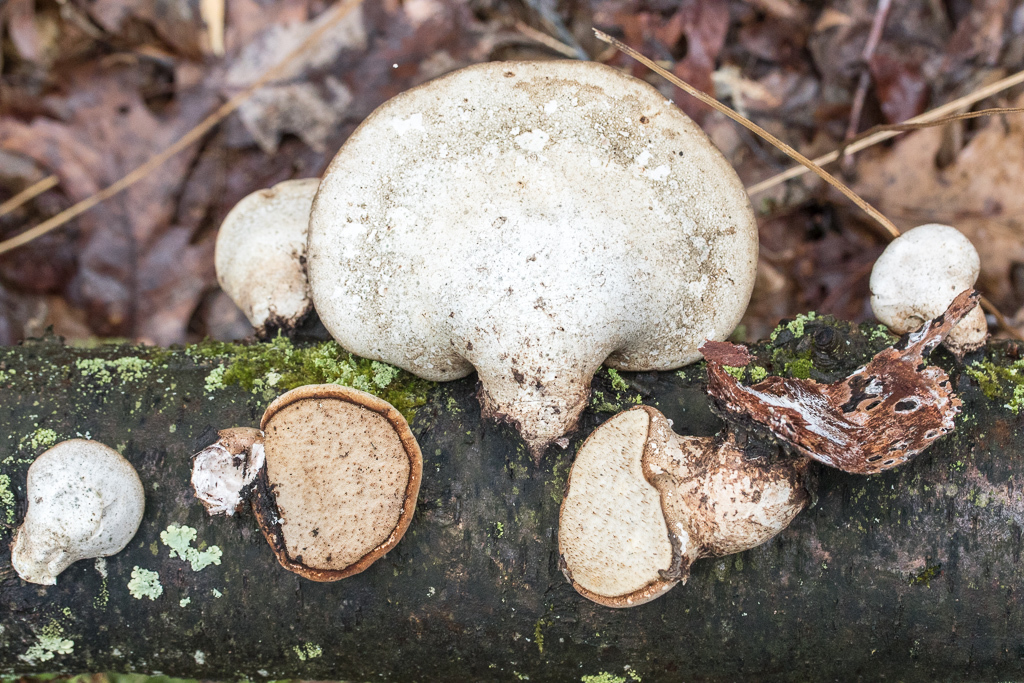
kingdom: Fungi
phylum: Basidiomycota
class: Agaricomycetes
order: Polyporales
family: Fomitopsidaceae
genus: Fomitopsis
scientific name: Fomitopsis betulina
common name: Birch polypore
